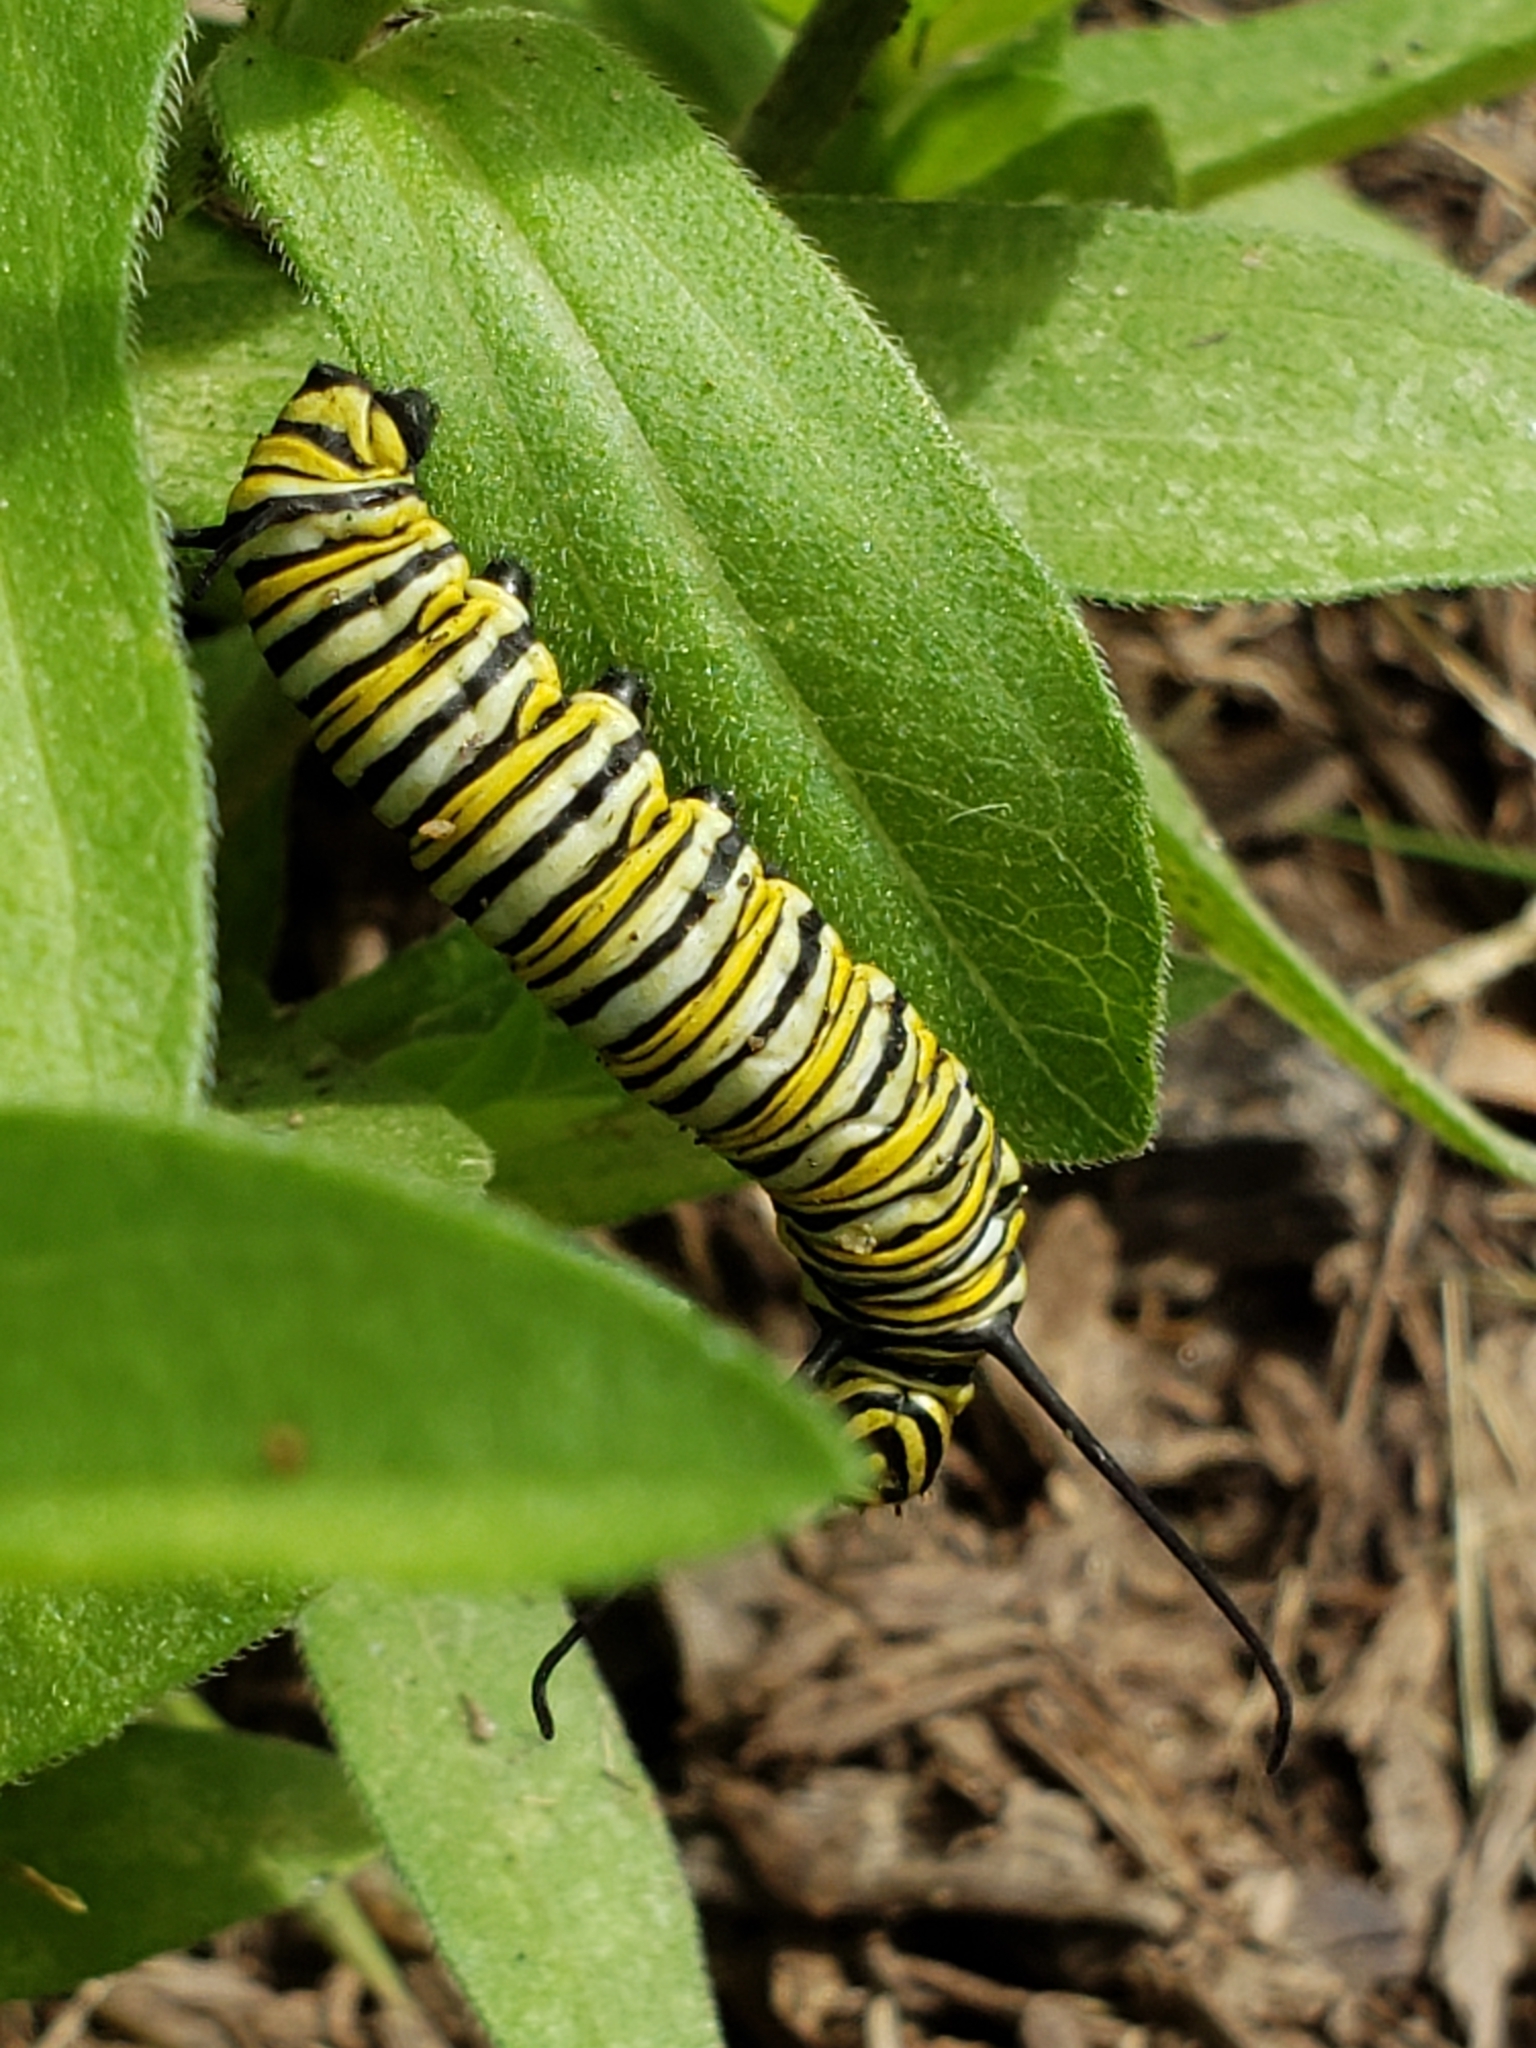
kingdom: Animalia
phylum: Arthropoda
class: Insecta
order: Lepidoptera
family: Nymphalidae
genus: Danaus
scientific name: Danaus plexippus
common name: Monarch
